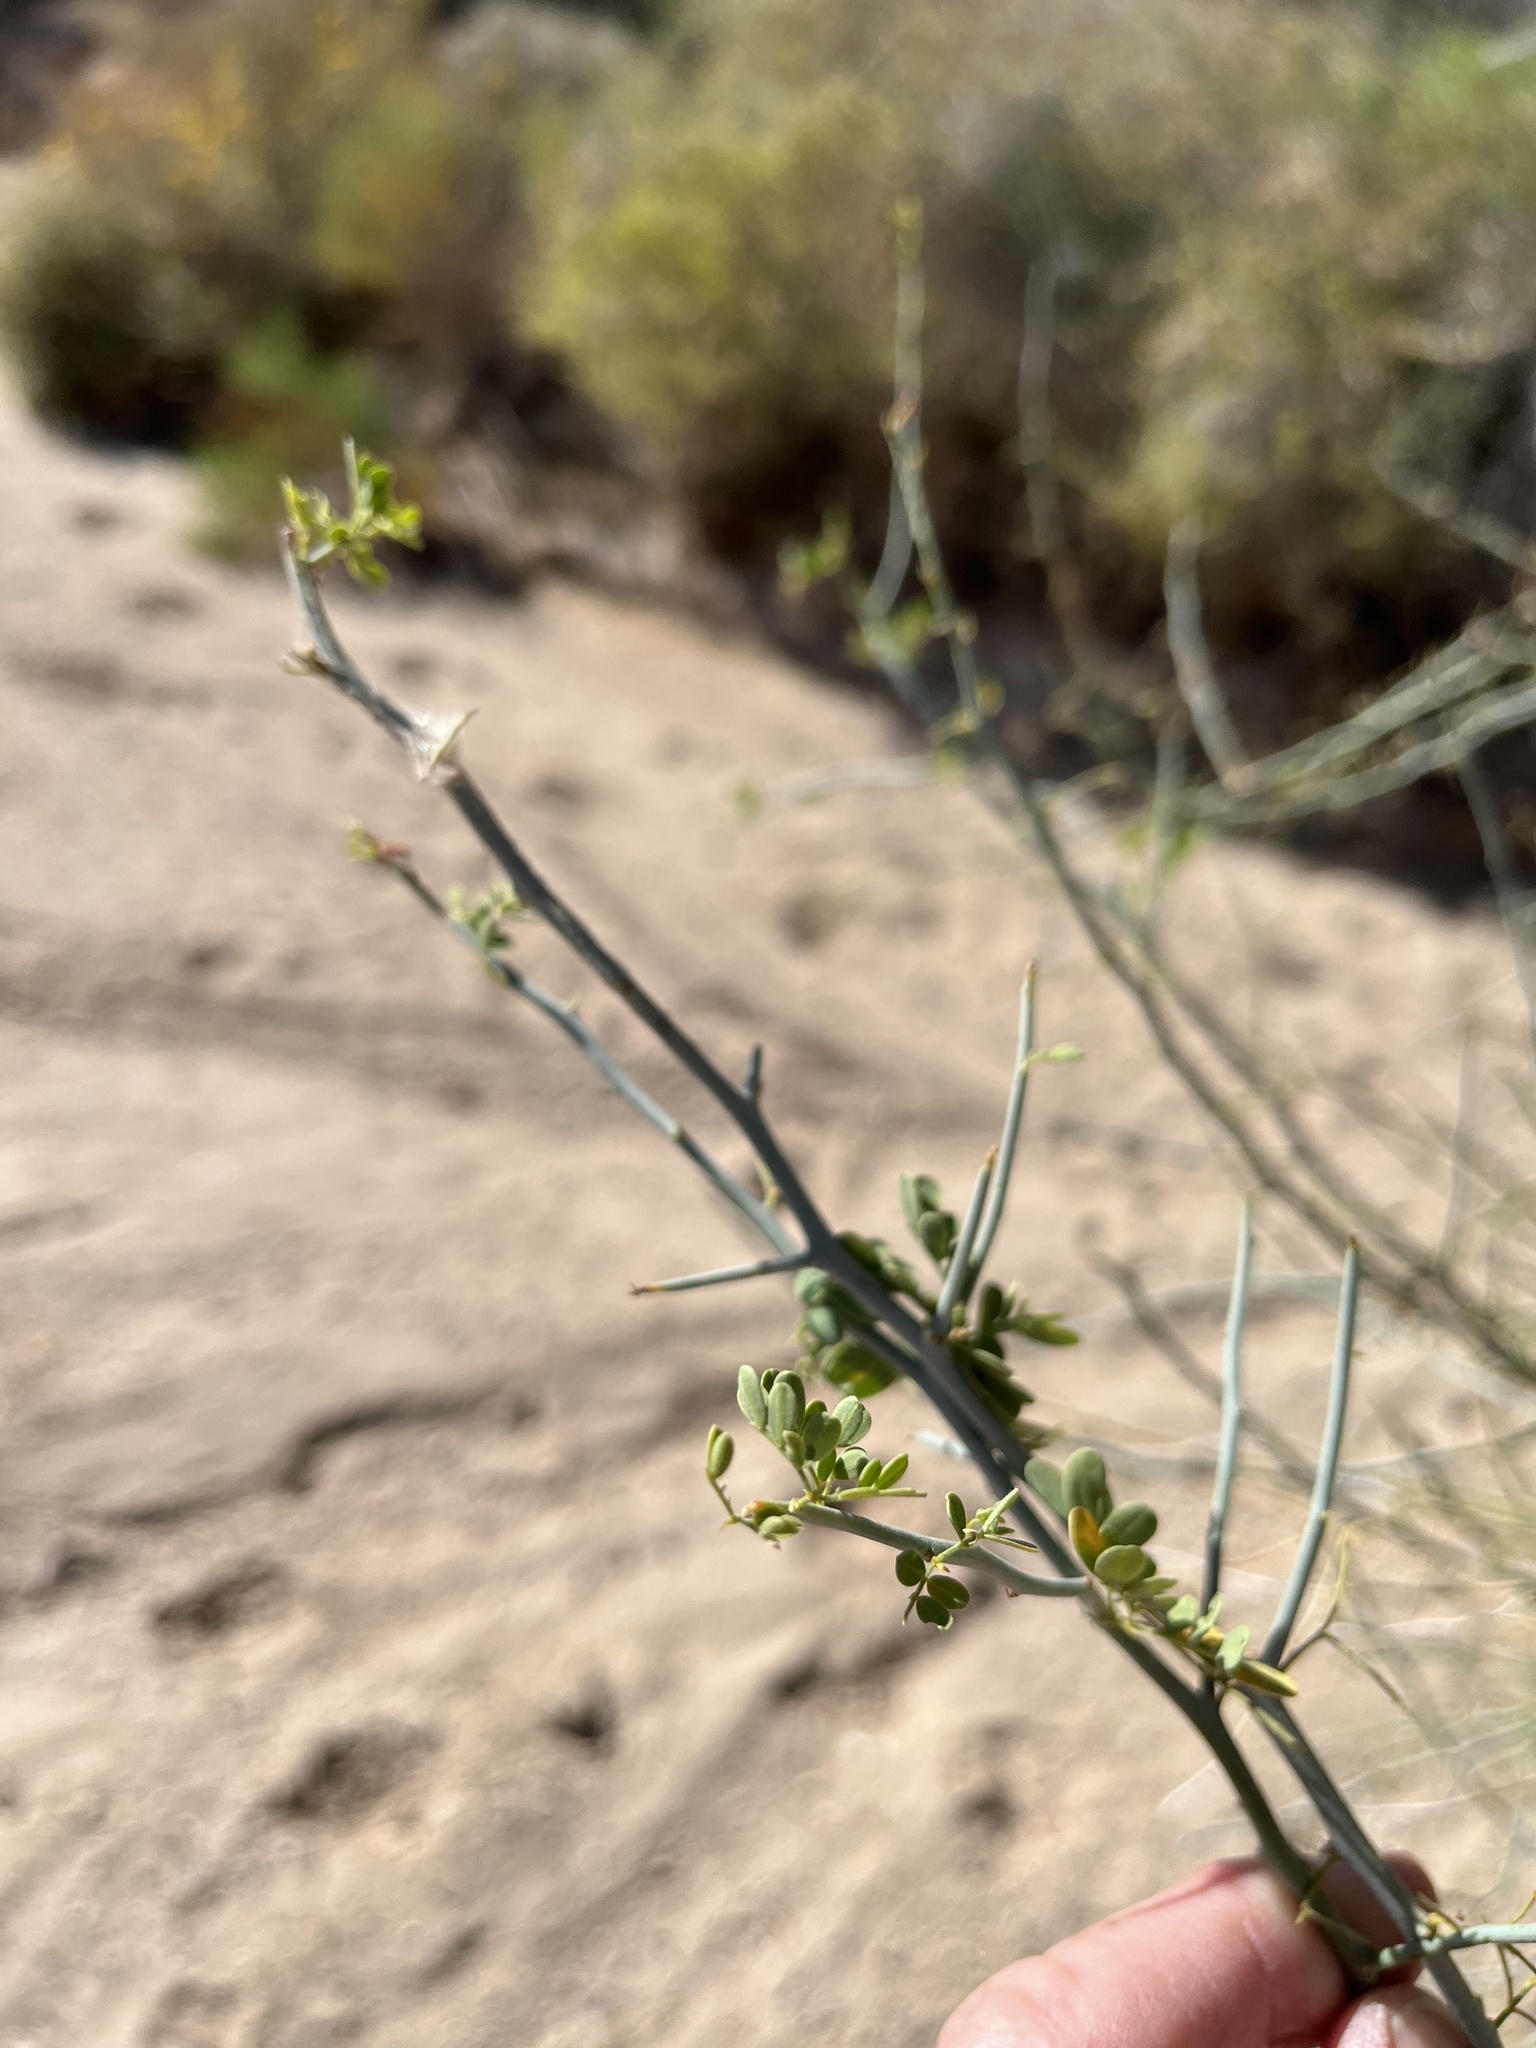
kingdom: Plantae
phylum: Tracheophyta
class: Magnoliopsida
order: Fabales
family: Fabaceae
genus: Parkinsonia
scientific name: Parkinsonia florida
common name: Blue paloverde
